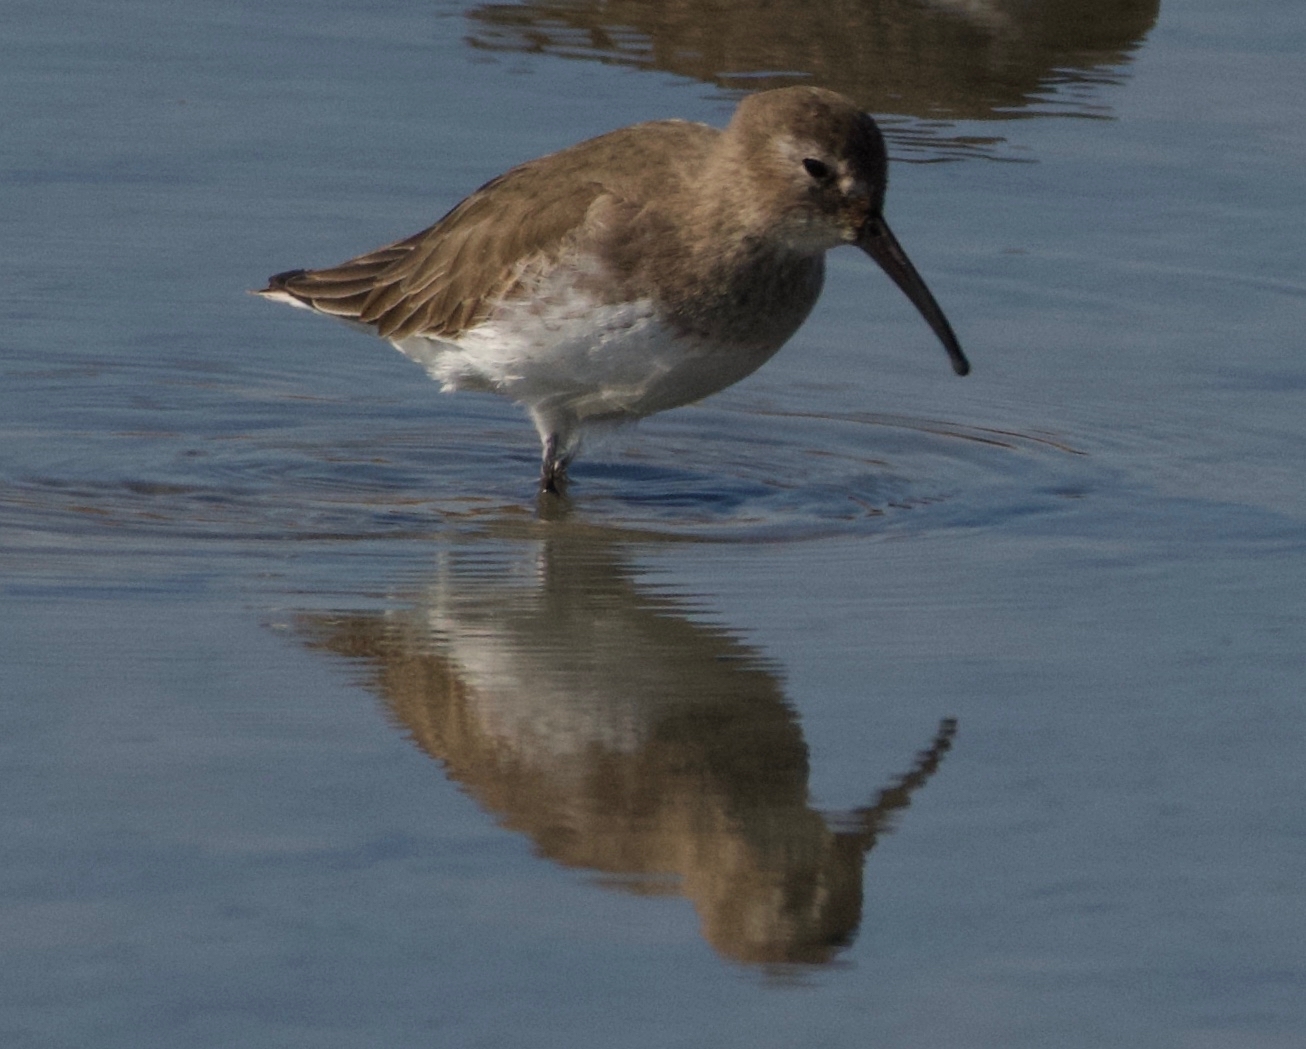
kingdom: Animalia
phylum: Chordata
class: Aves
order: Charadriiformes
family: Scolopacidae
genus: Calidris
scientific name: Calidris alpina
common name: Dunlin
